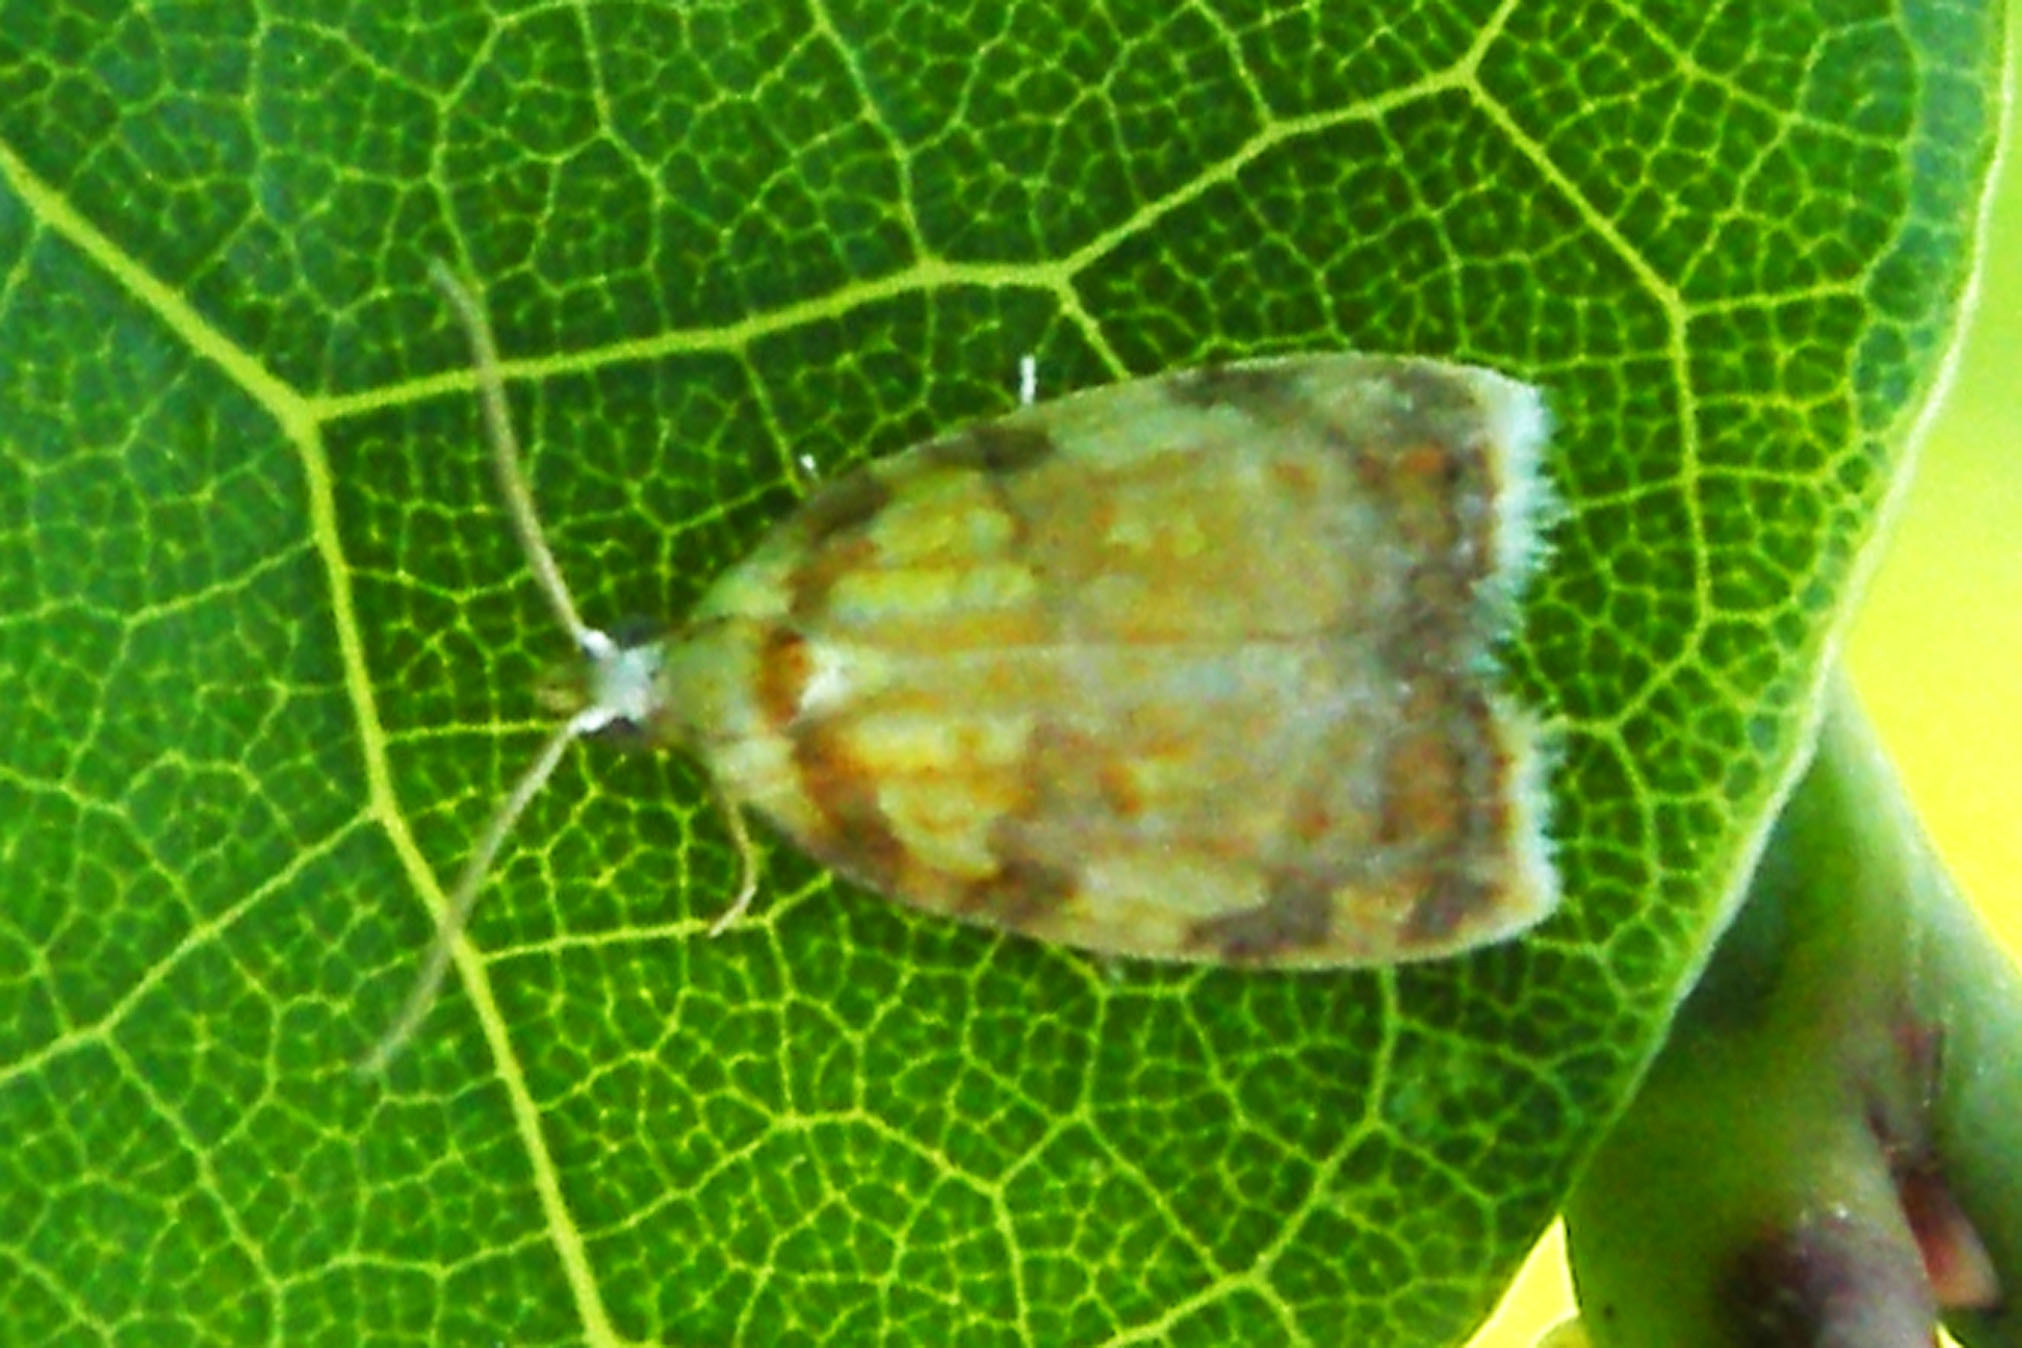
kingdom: Animalia
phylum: Arthropoda
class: Insecta
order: Lepidoptera
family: Tortricidae
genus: Acleris
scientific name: Acleris albicomana
